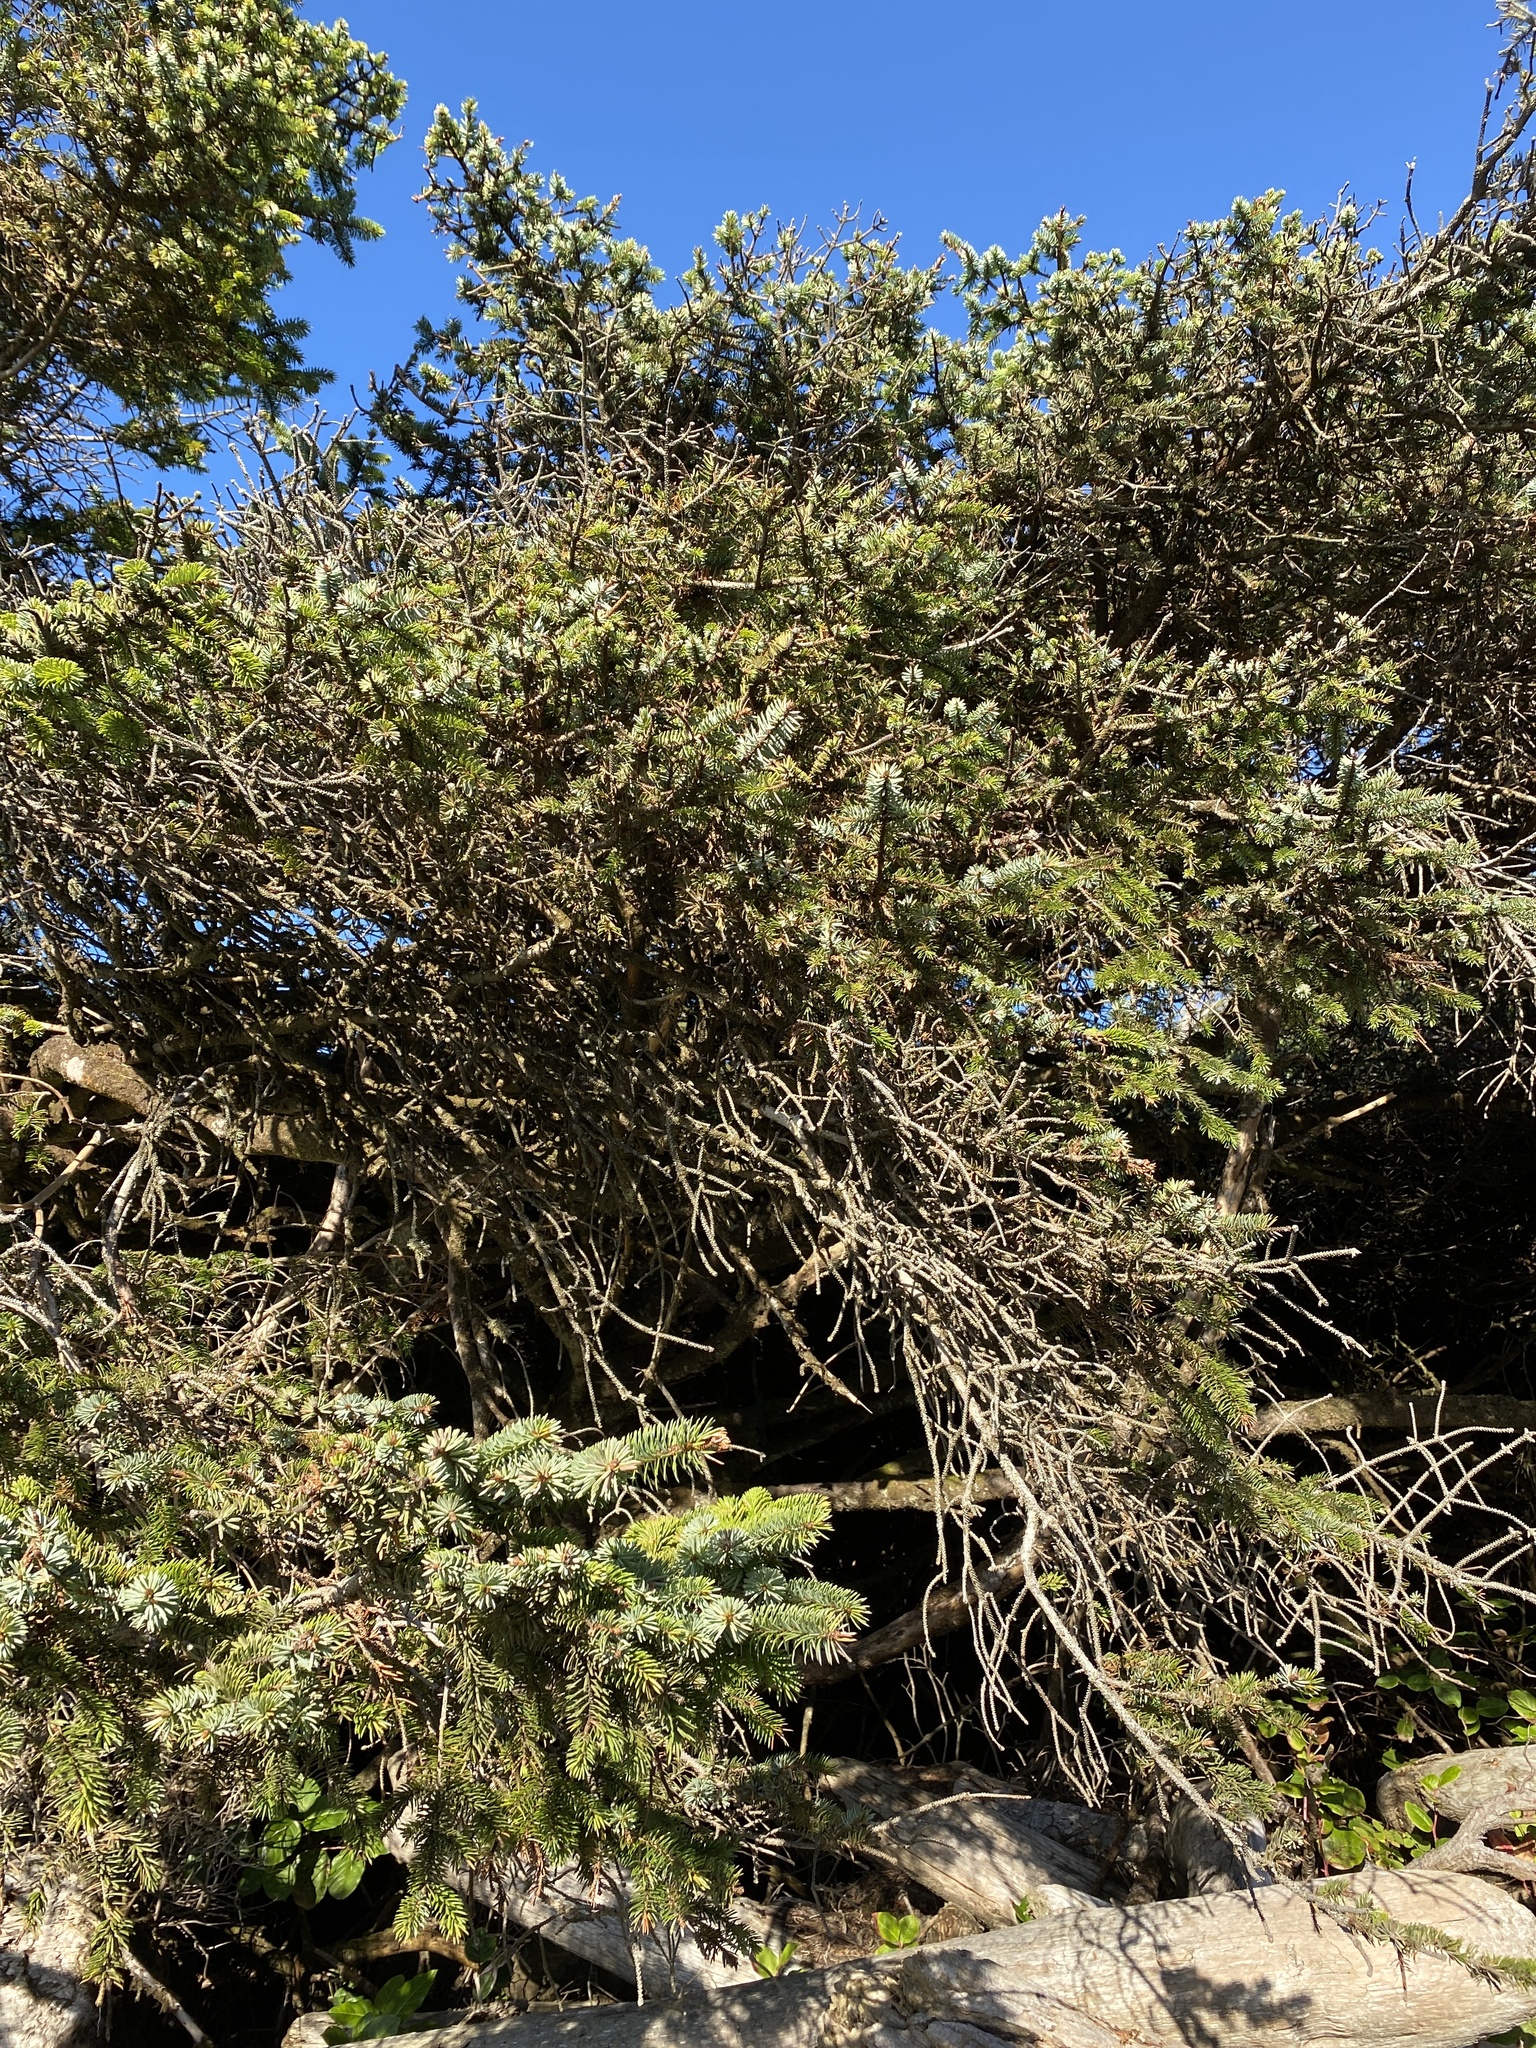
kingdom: Plantae
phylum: Tracheophyta
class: Pinopsida
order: Pinales
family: Pinaceae
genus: Picea
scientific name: Picea sitchensis
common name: Sitka spruce
